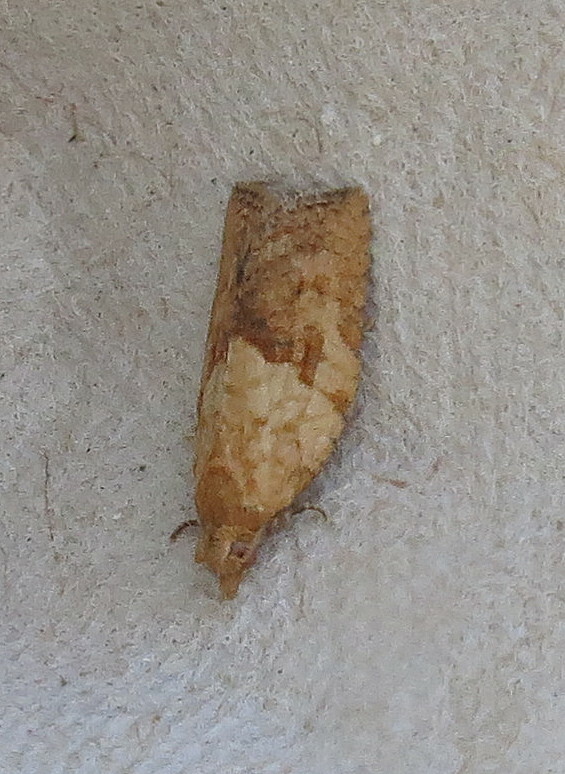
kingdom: Animalia
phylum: Arthropoda
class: Insecta
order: Lepidoptera
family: Tortricidae
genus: Epiphyas
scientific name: Epiphyas postvittana
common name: Light brown apple moth
